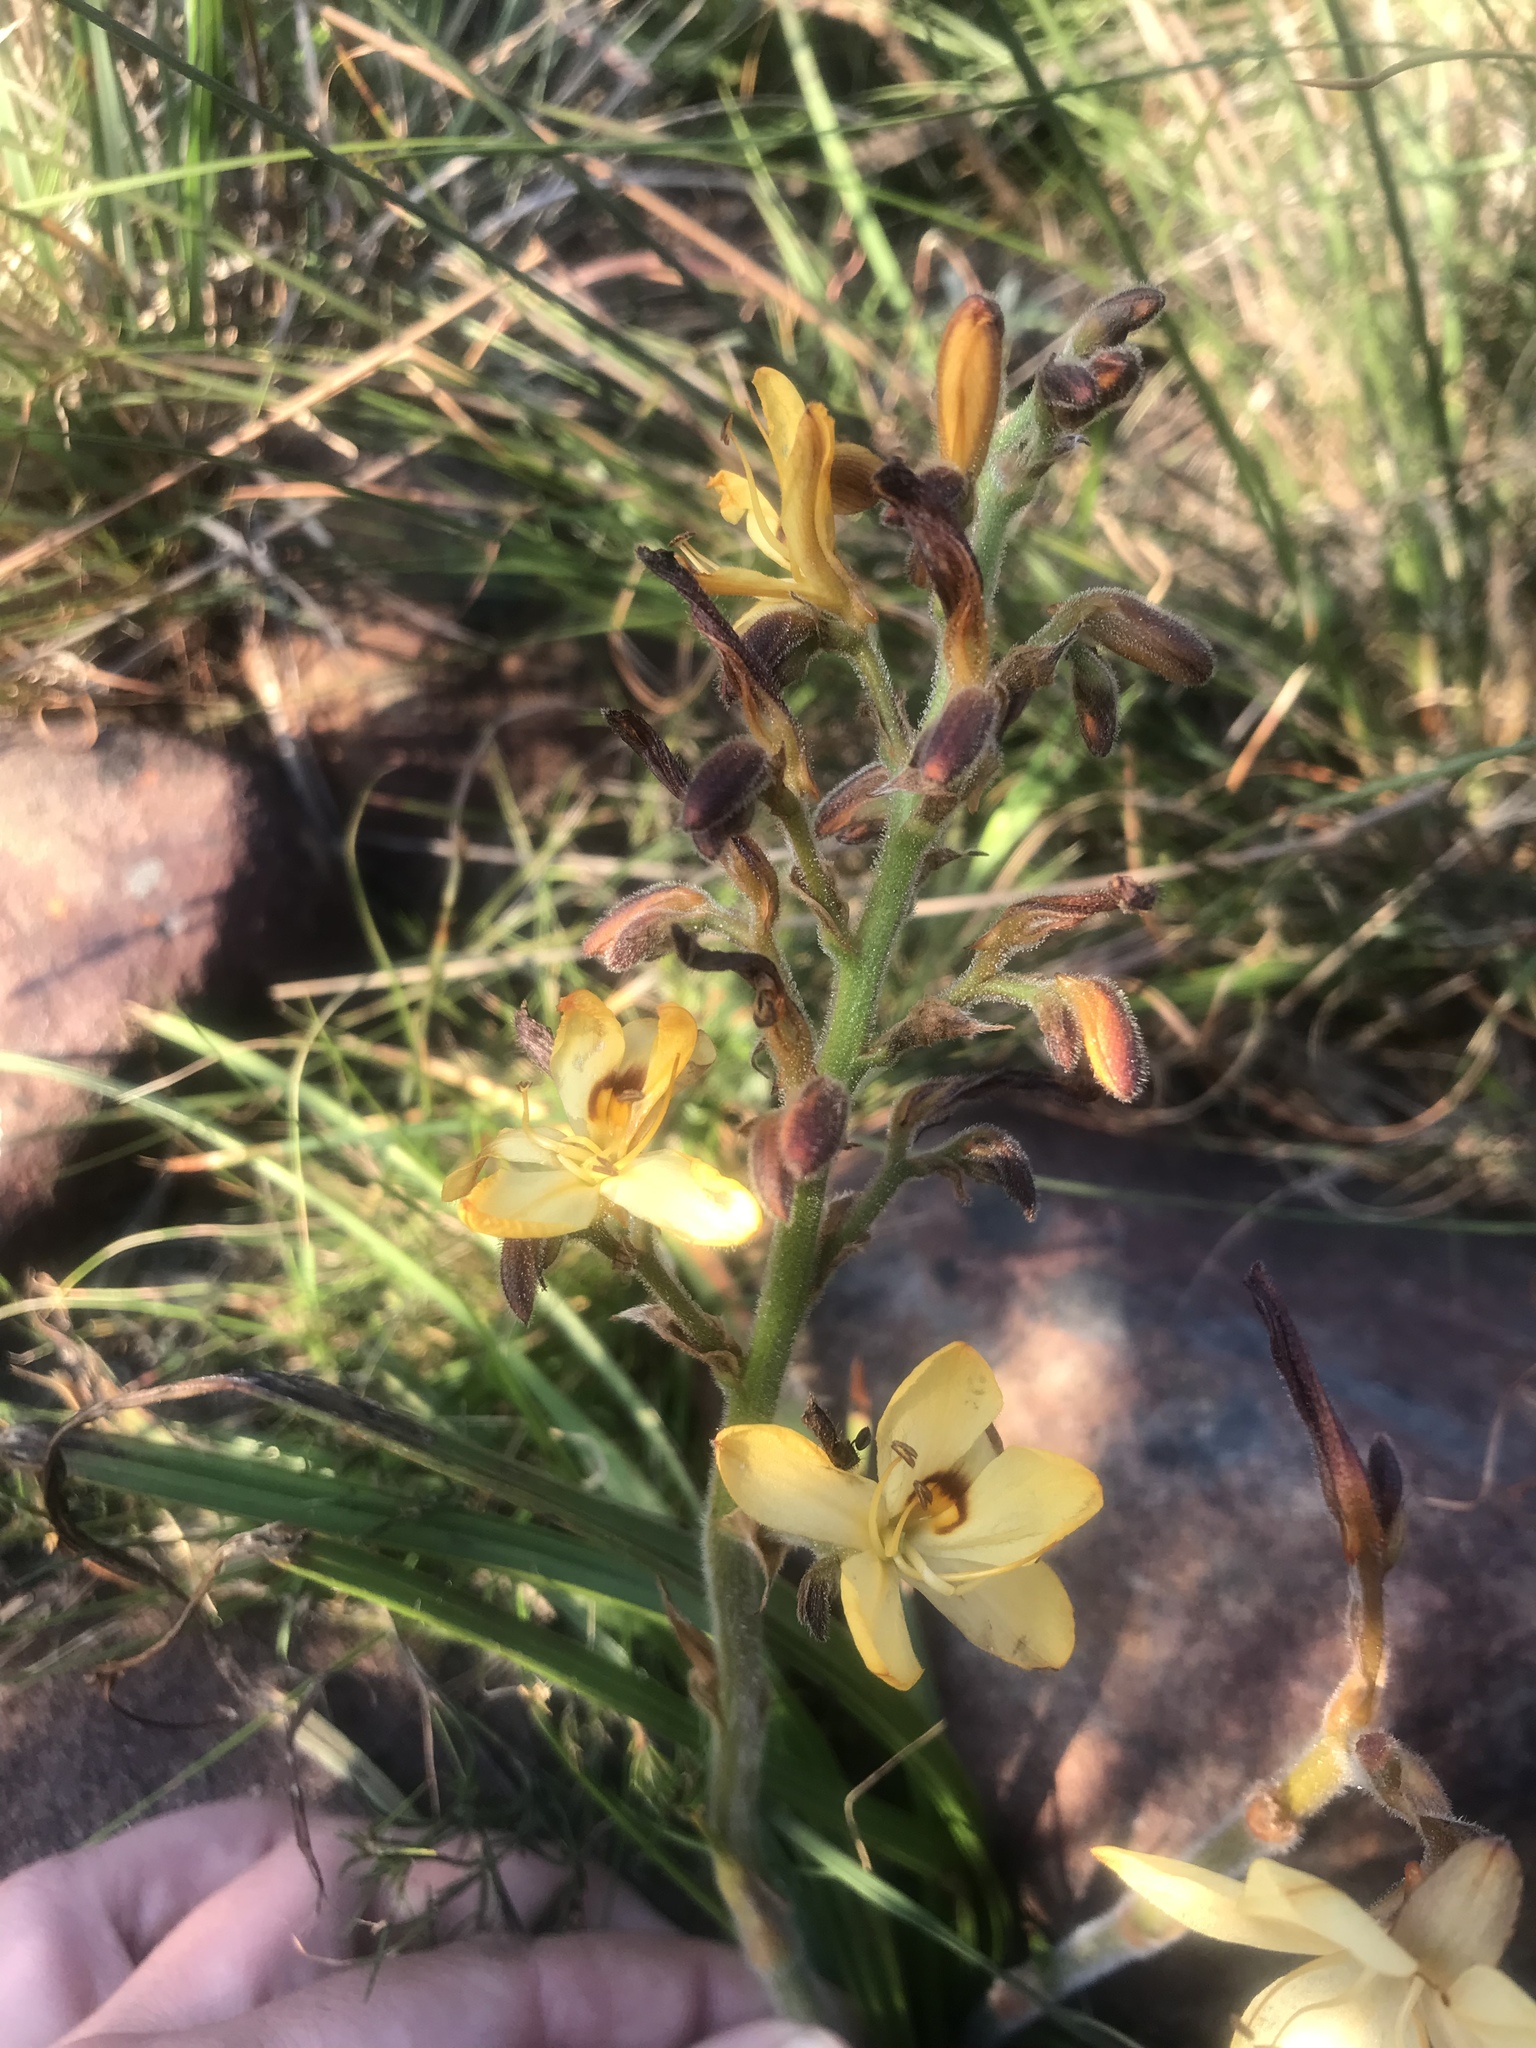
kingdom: Plantae
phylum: Tracheophyta
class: Liliopsida
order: Commelinales
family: Haemodoraceae
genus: Wachendorfia
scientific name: Wachendorfia paniculata
